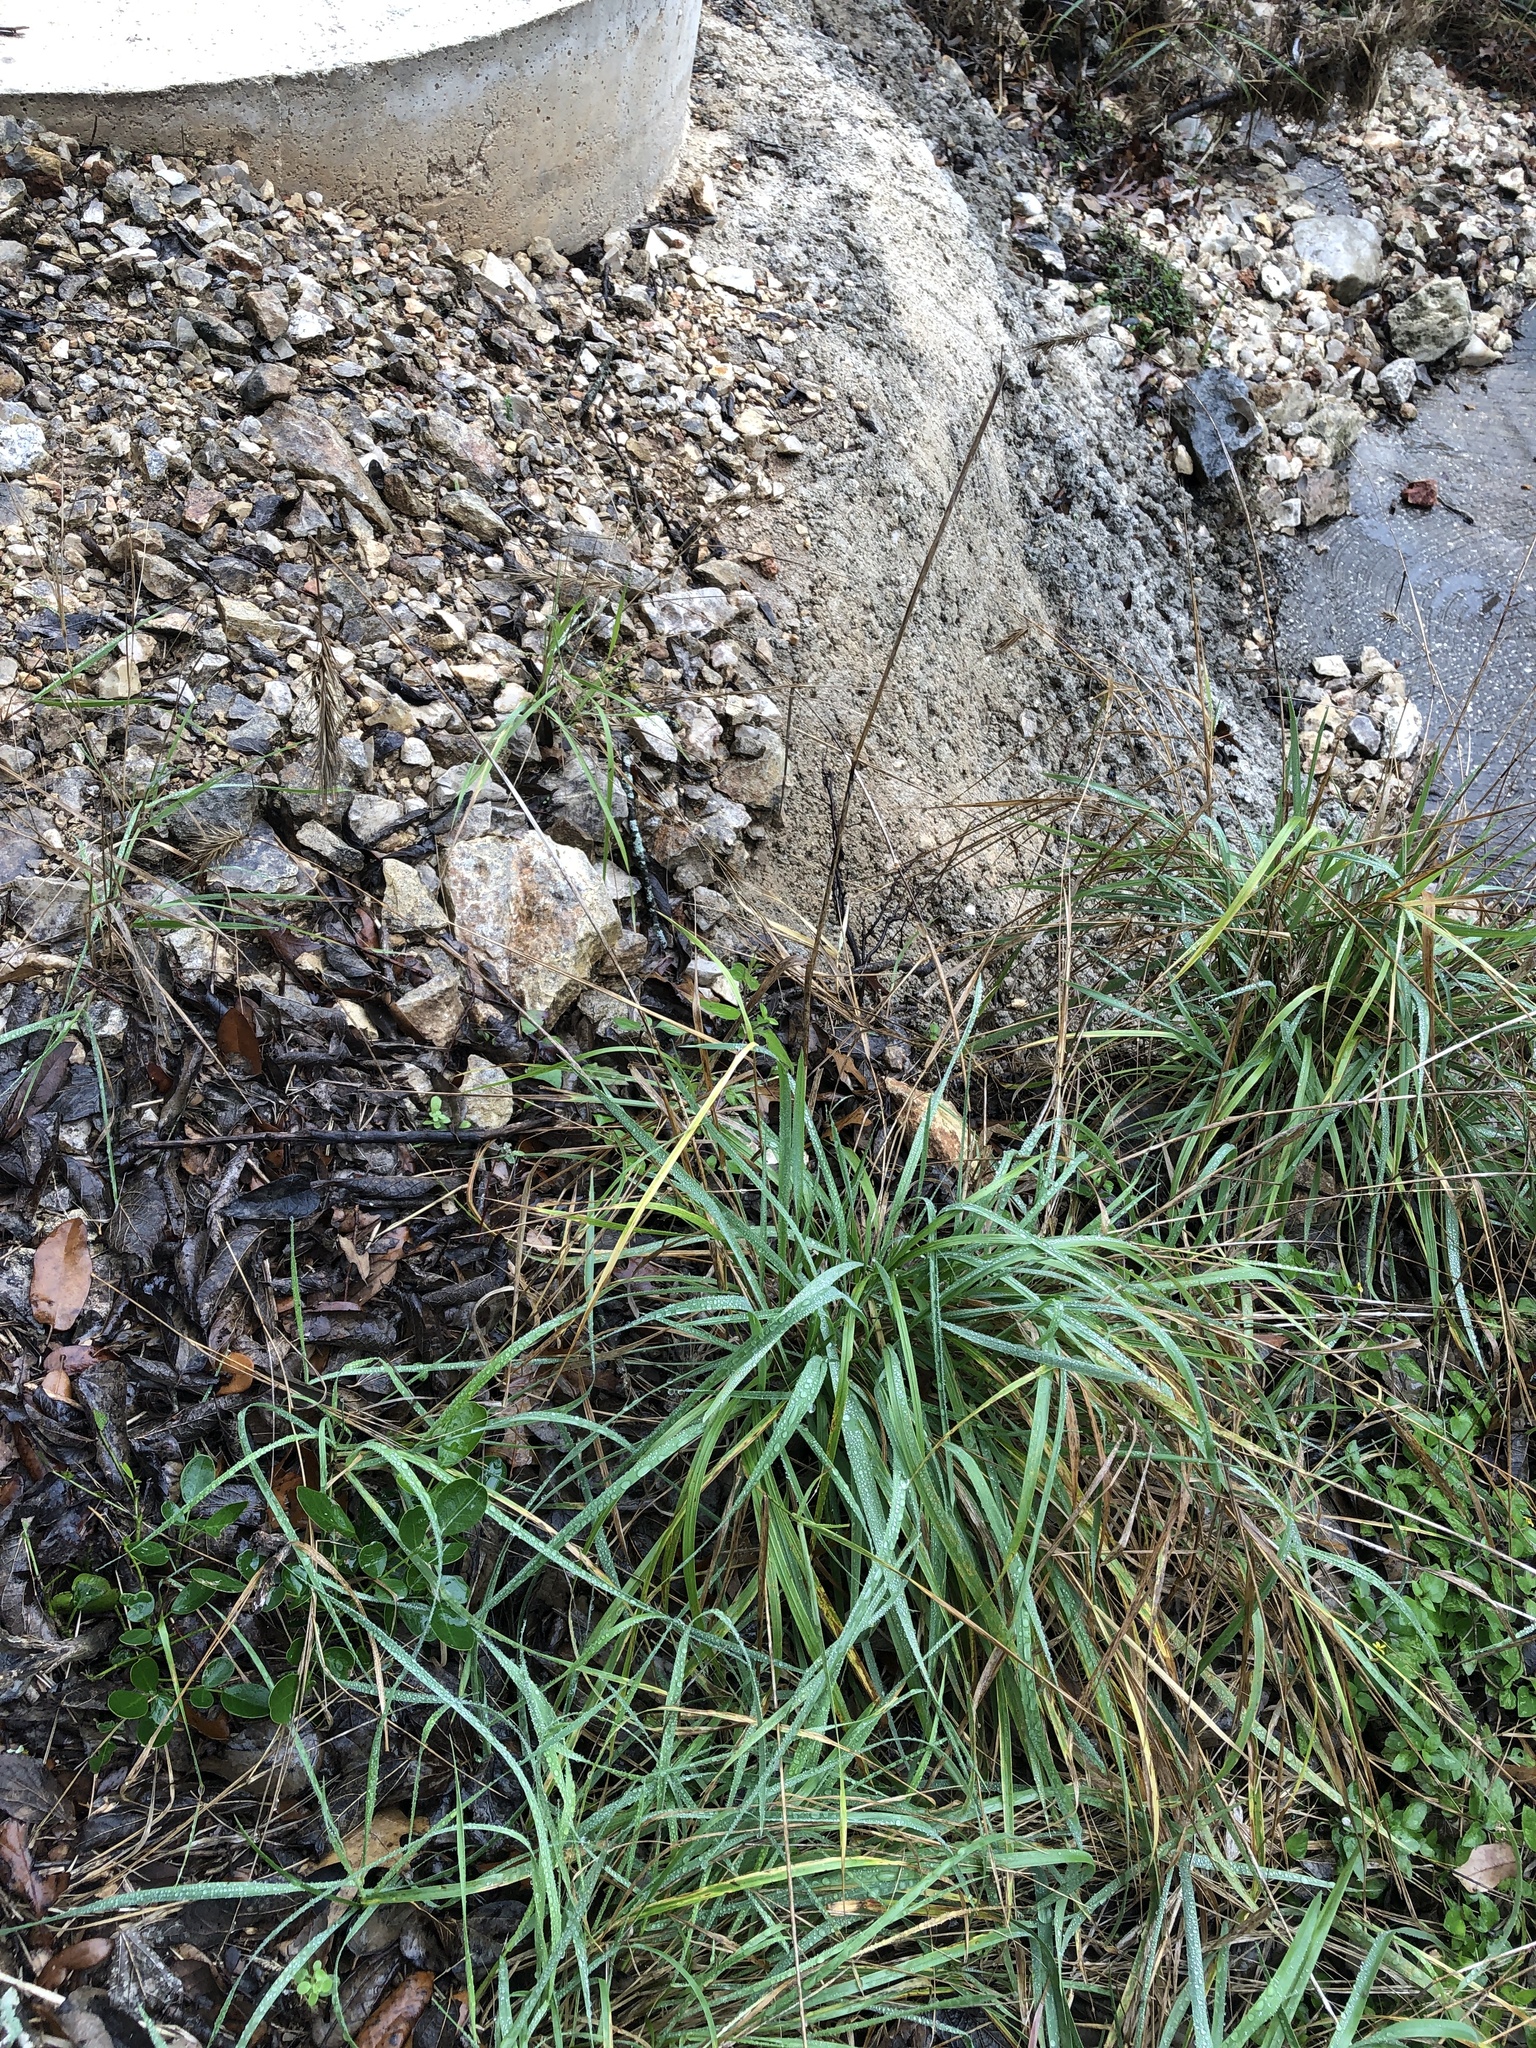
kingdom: Plantae
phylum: Tracheophyta
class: Liliopsida
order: Poales
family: Poaceae
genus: Elymus
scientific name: Elymus virginicus
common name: Common eastern wildrye
